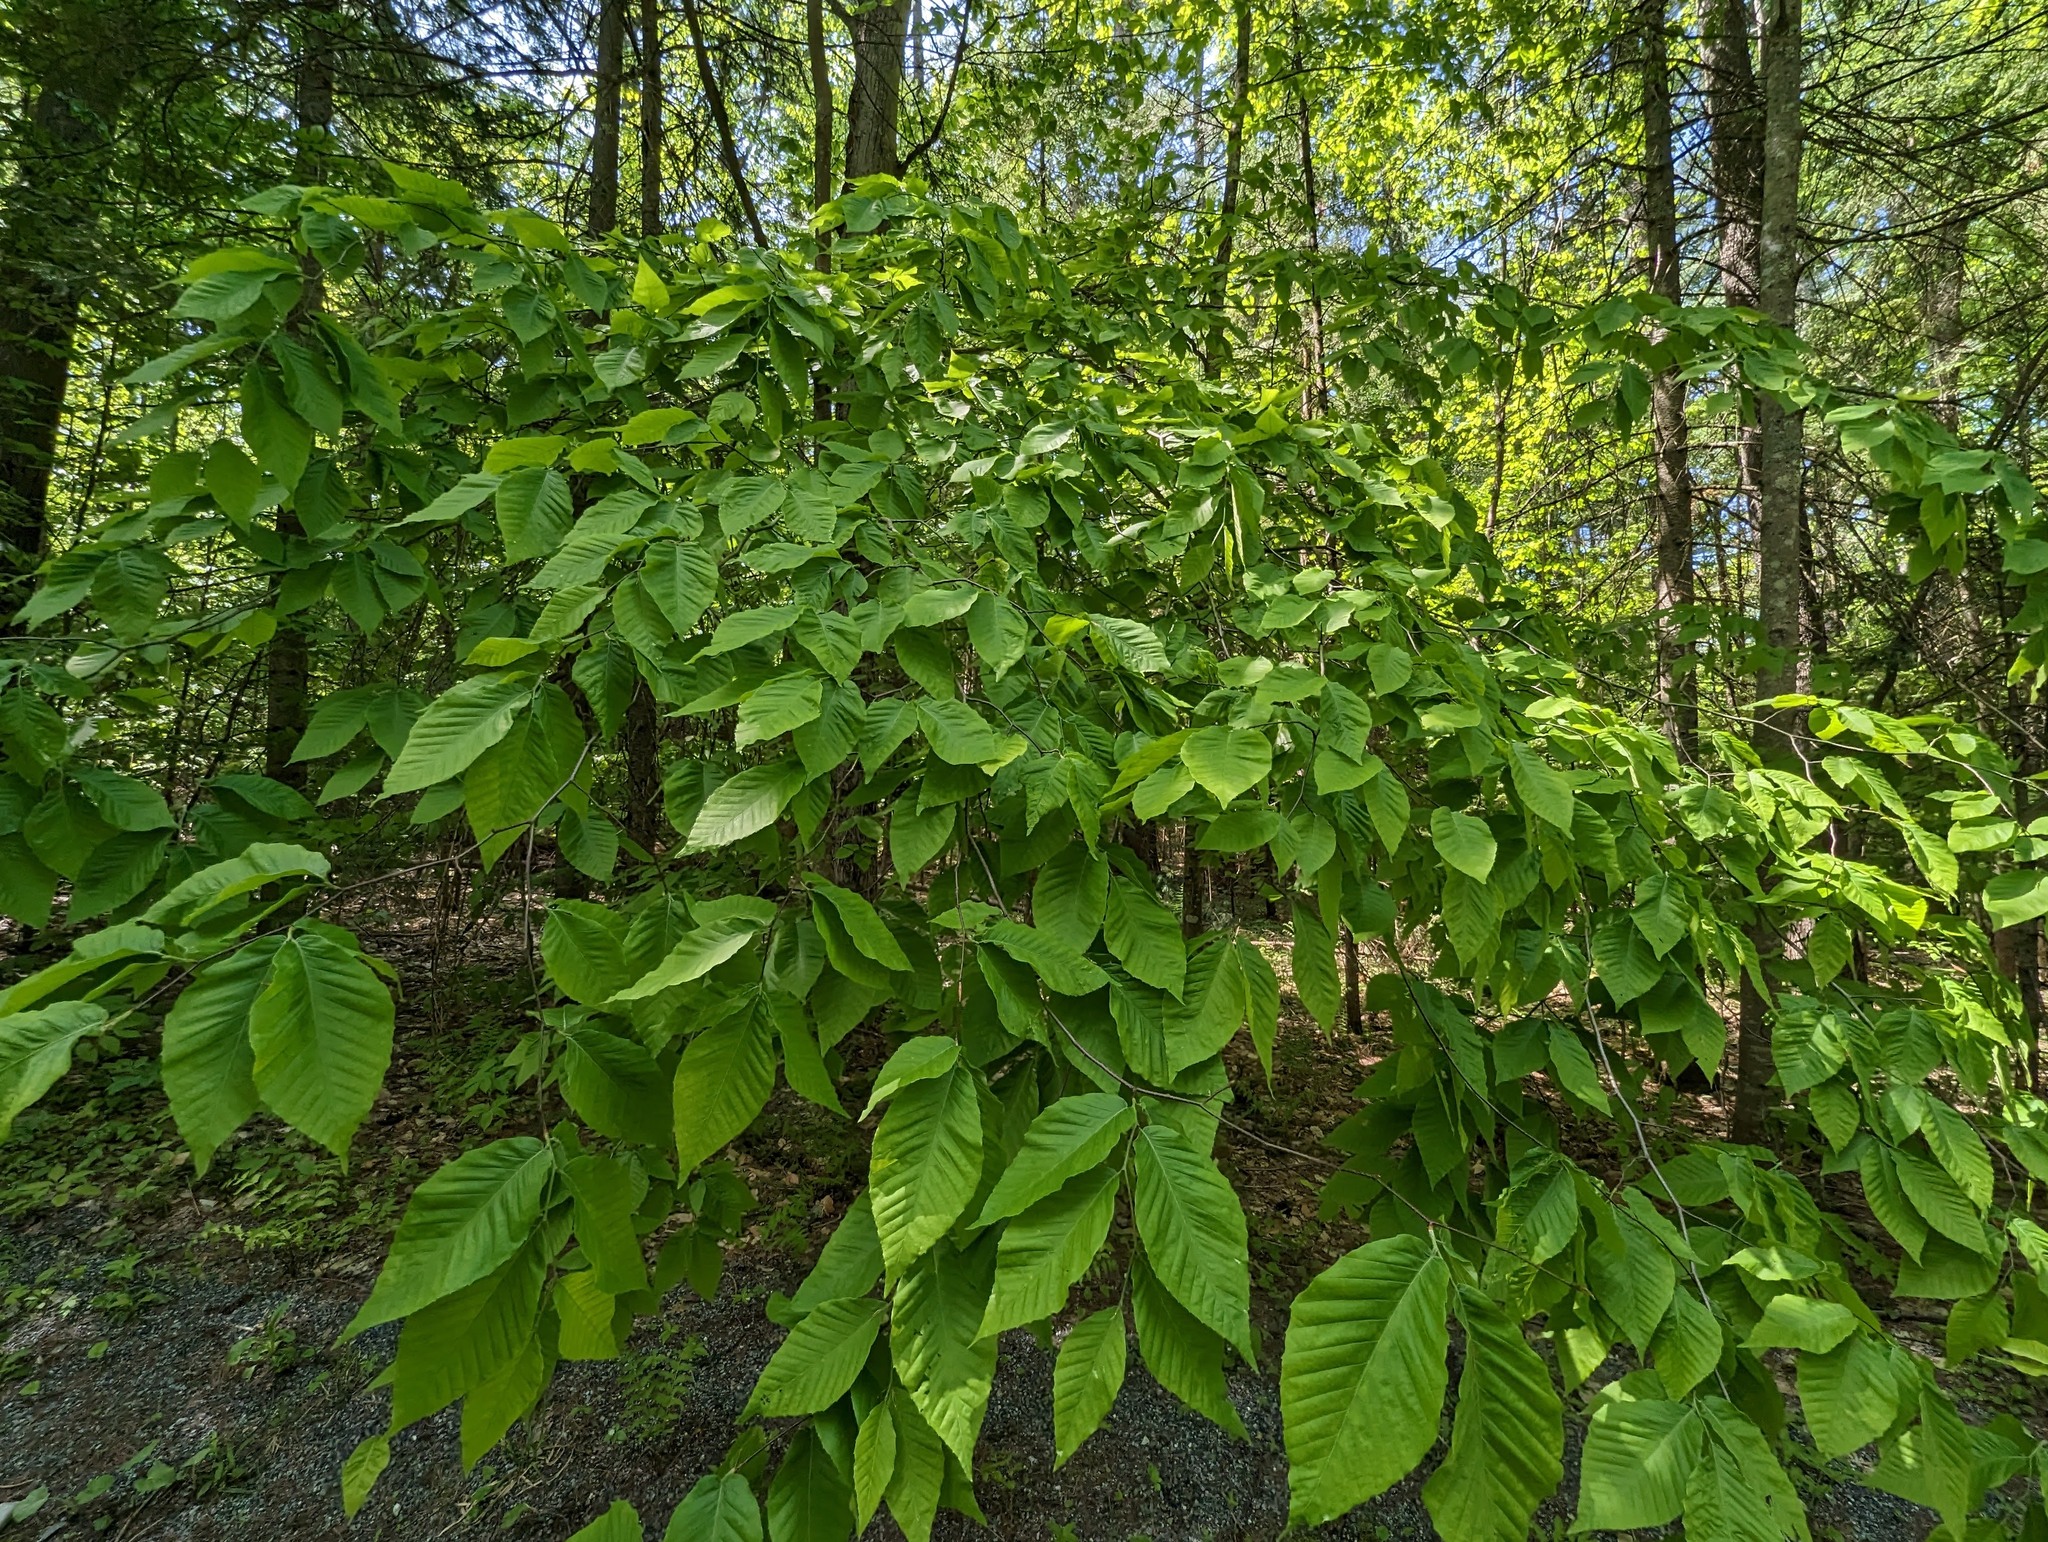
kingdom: Plantae
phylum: Tracheophyta
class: Magnoliopsida
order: Fagales
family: Fagaceae
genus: Fagus
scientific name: Fagus grandifolia
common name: American beech
